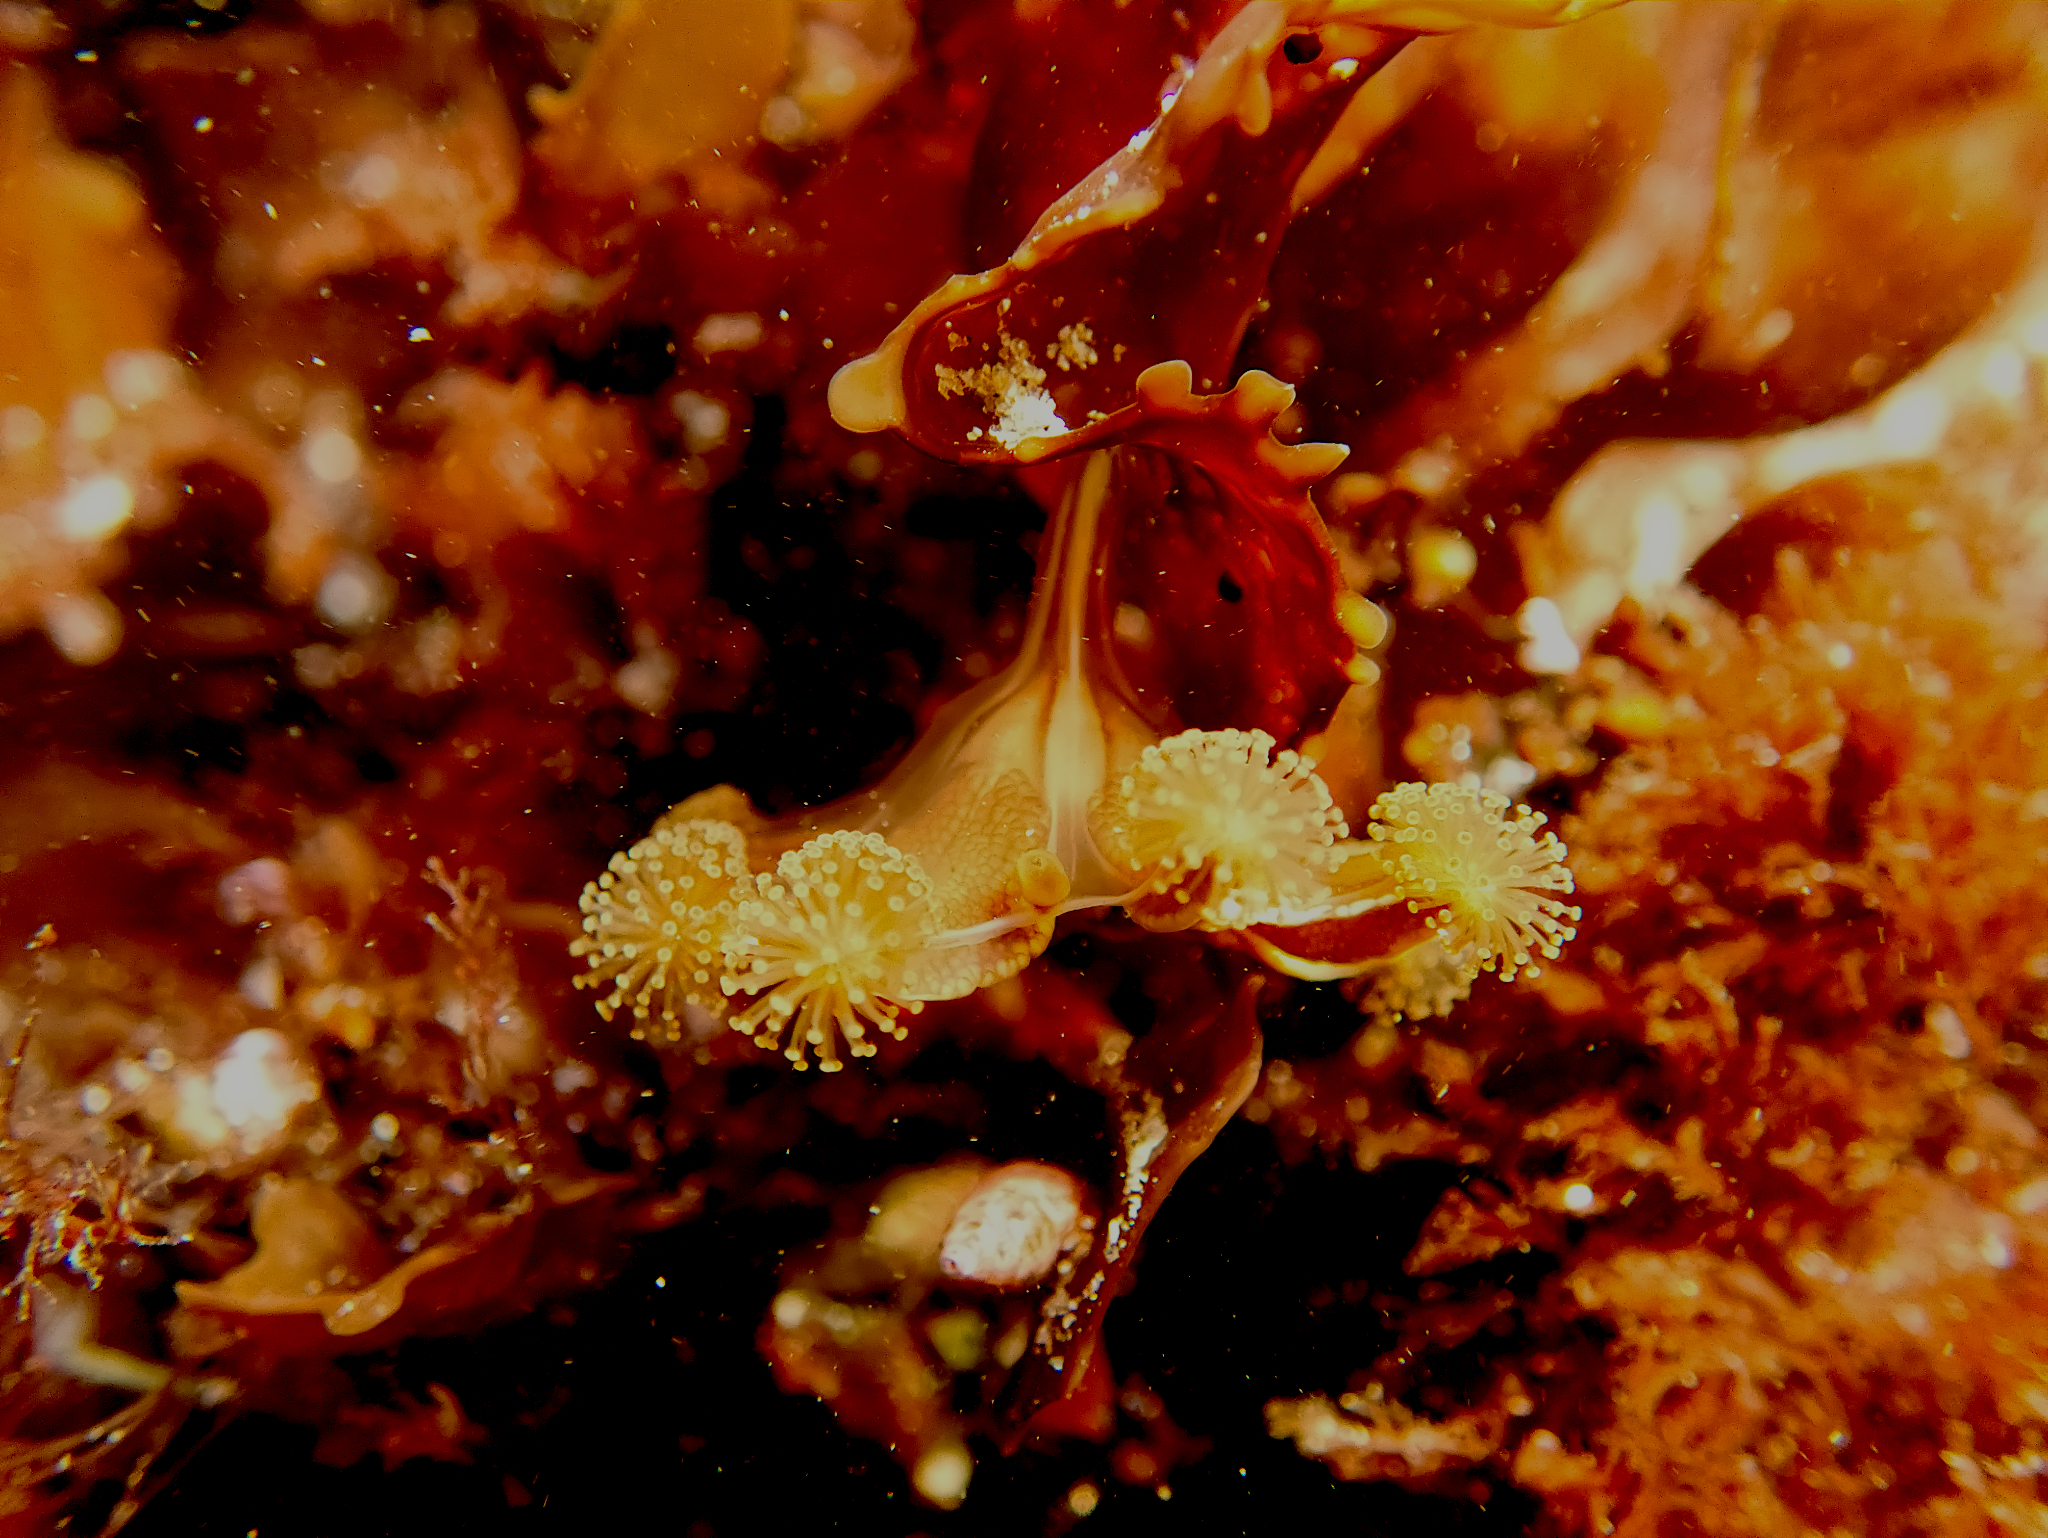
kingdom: Animalia
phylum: Cnidaria
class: Staurozoa
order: Stauromedusae
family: Haliclystidae
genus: Haliclystus
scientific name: Haliclystus sanjuanensis
